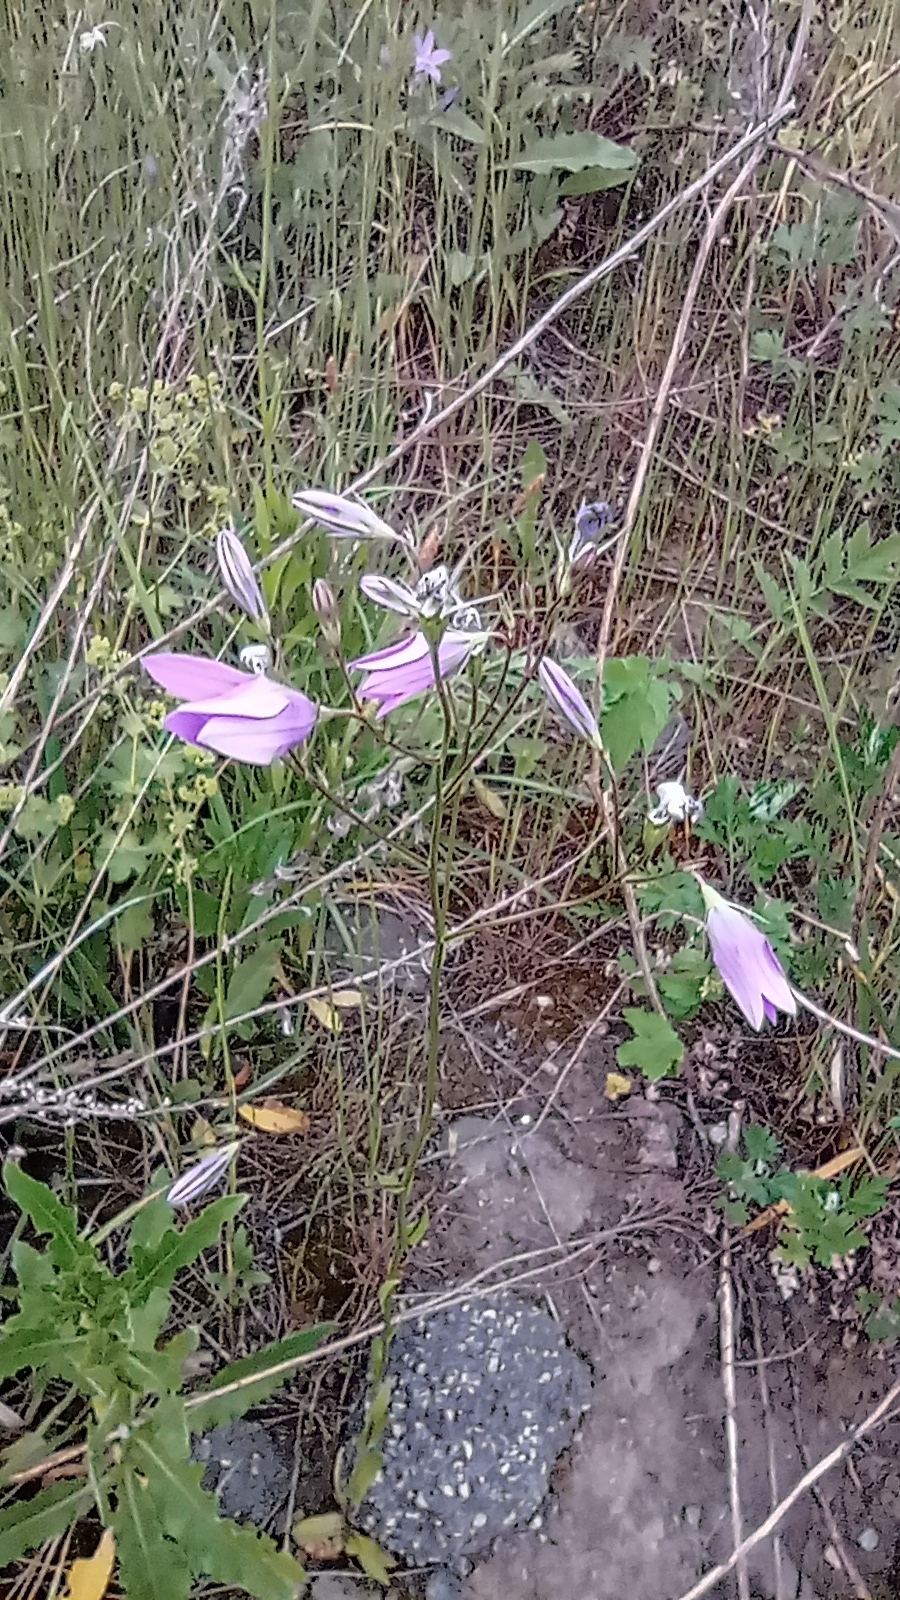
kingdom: Plantae
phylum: Tracheophyta
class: Magnoliopsida
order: Asterales
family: Campanulaceae
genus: Campanula
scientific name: Campanula patula
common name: Spreading bellflower
